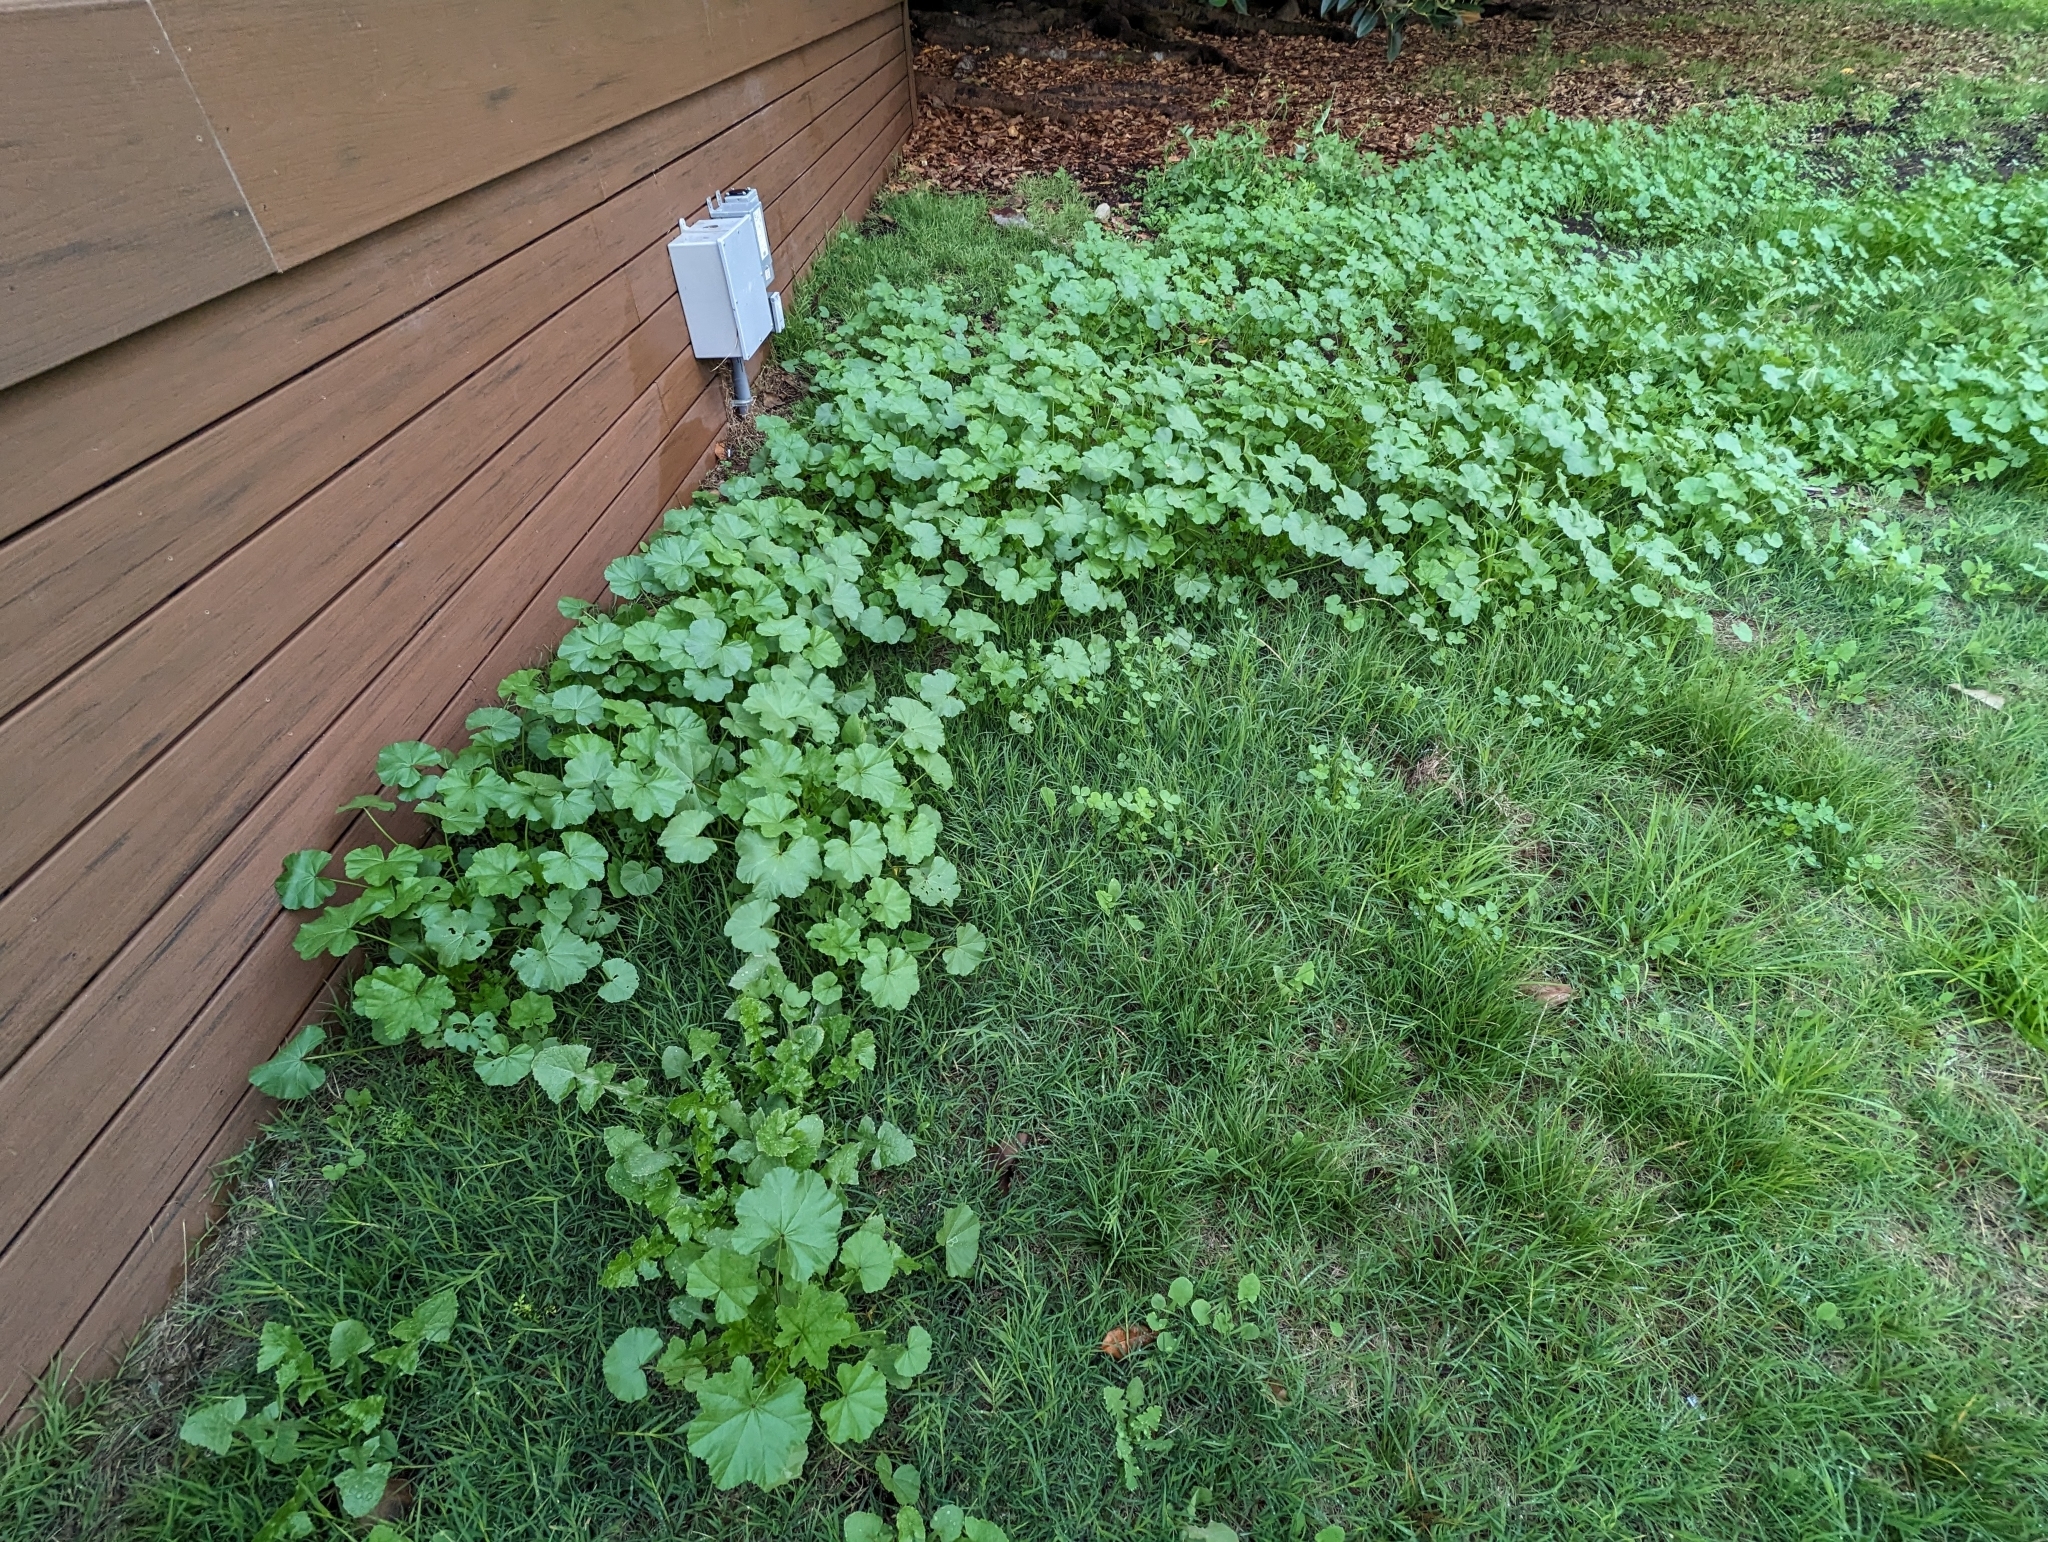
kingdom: Plantae
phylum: Tracheophyta
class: Magnoliopsida
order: Malvales
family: Malvaceae
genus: Malva
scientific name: Malva
